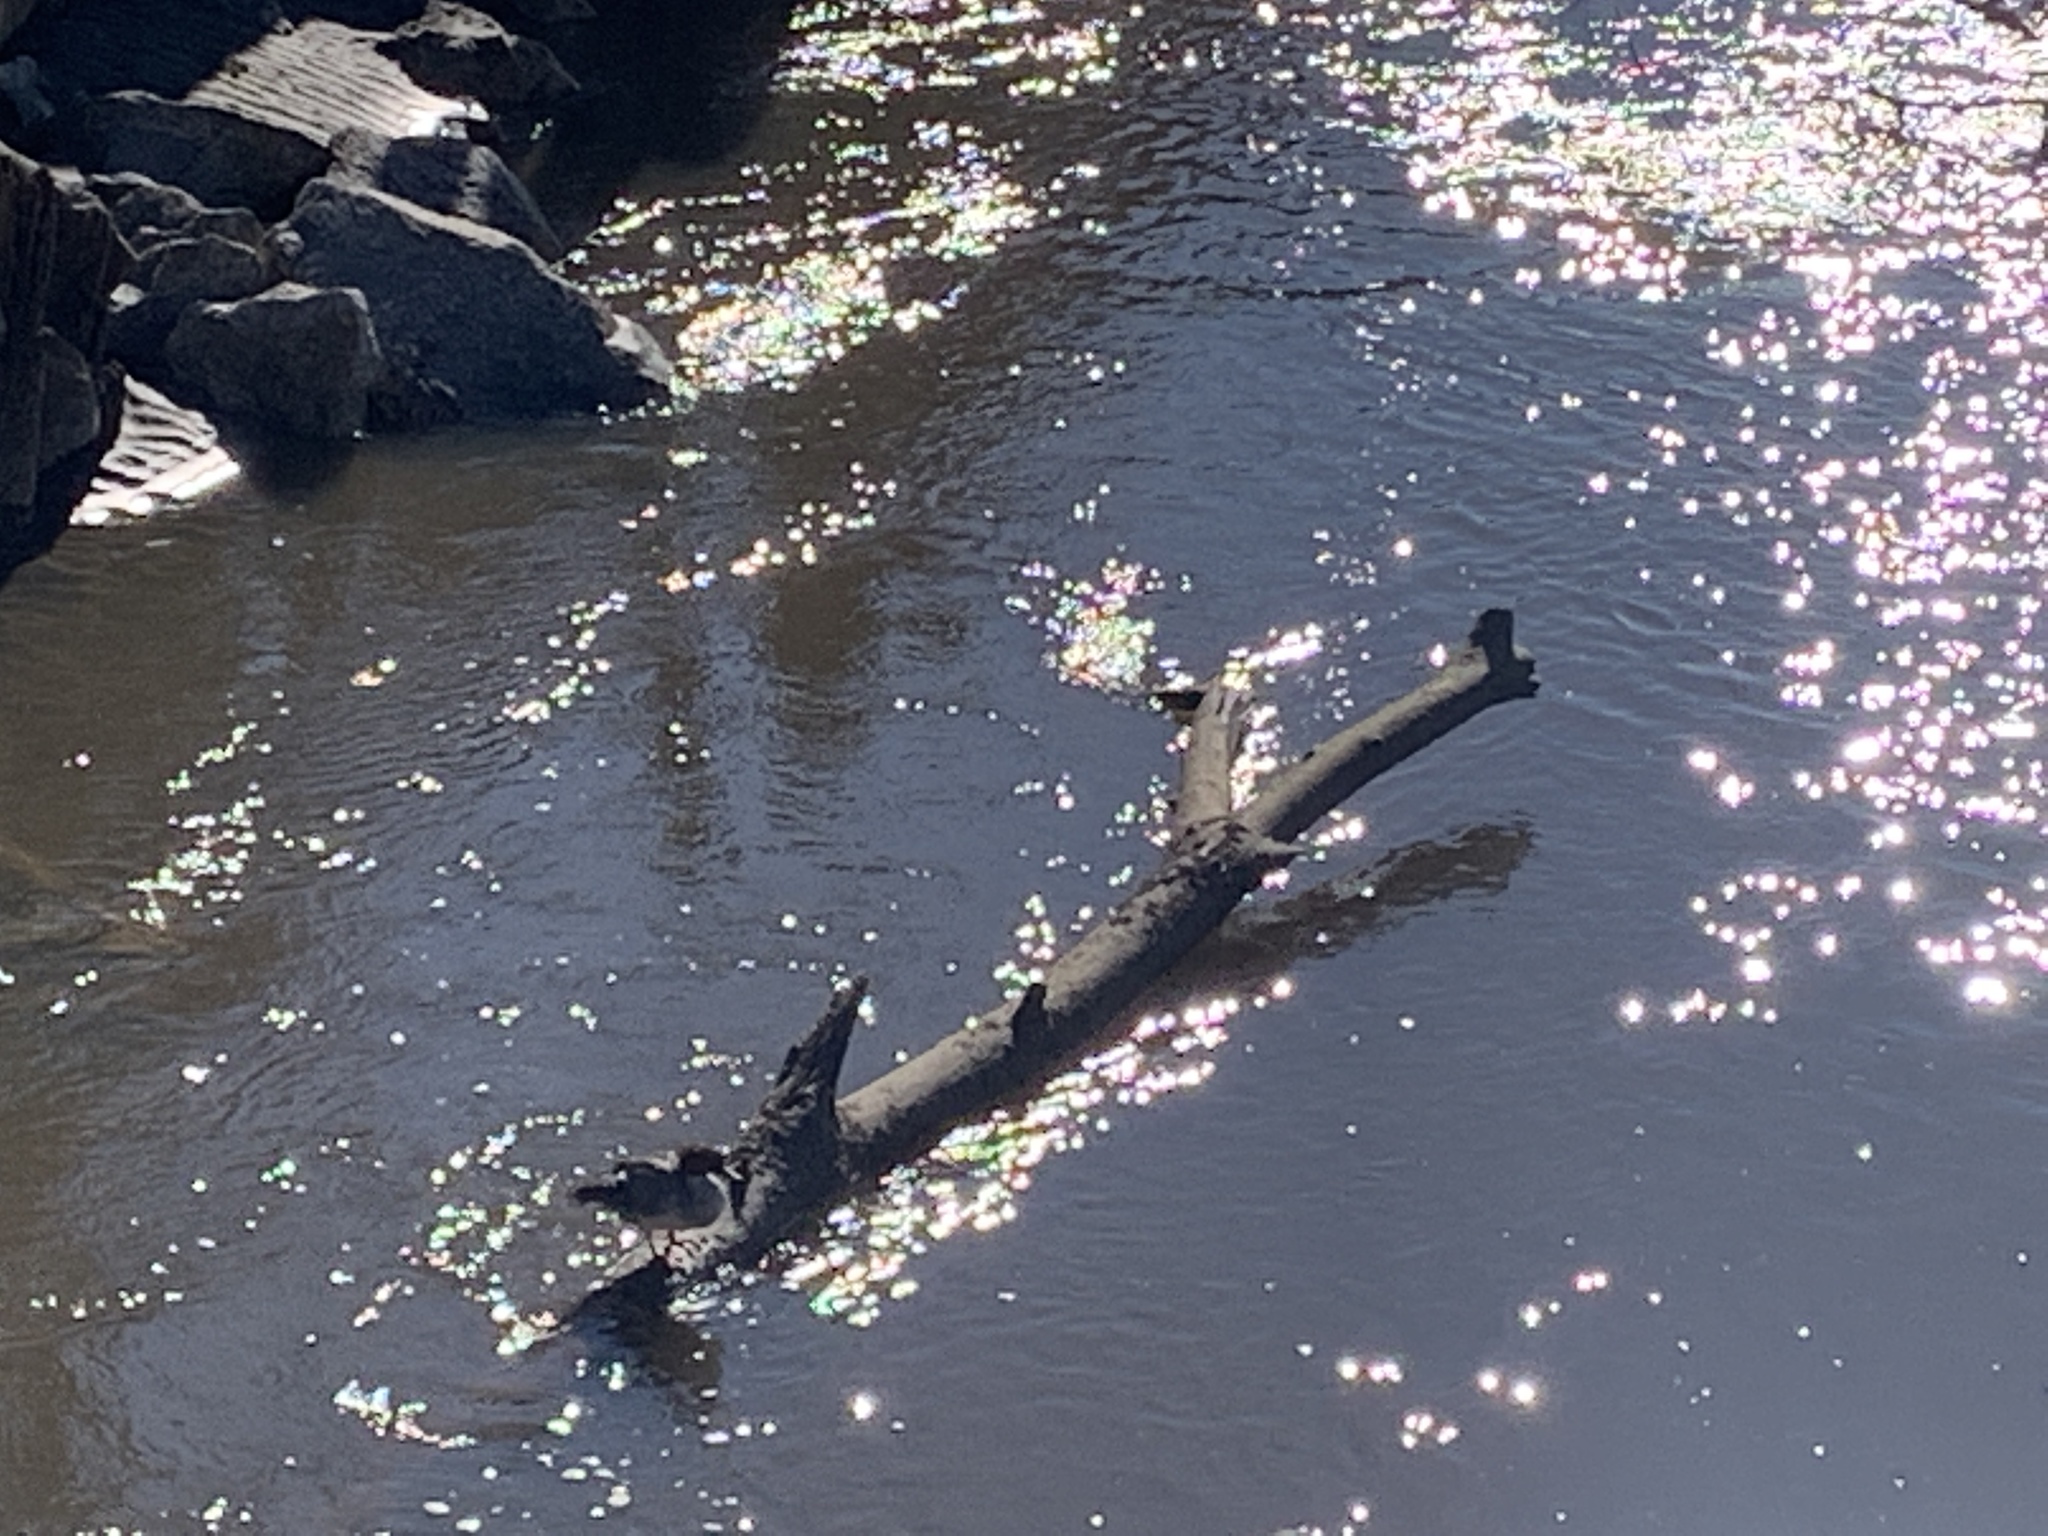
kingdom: Animalia
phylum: Chordata
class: Aves
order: Anseriformes
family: Anatidae
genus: Mergus
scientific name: Mergus merganser
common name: Common merganser
